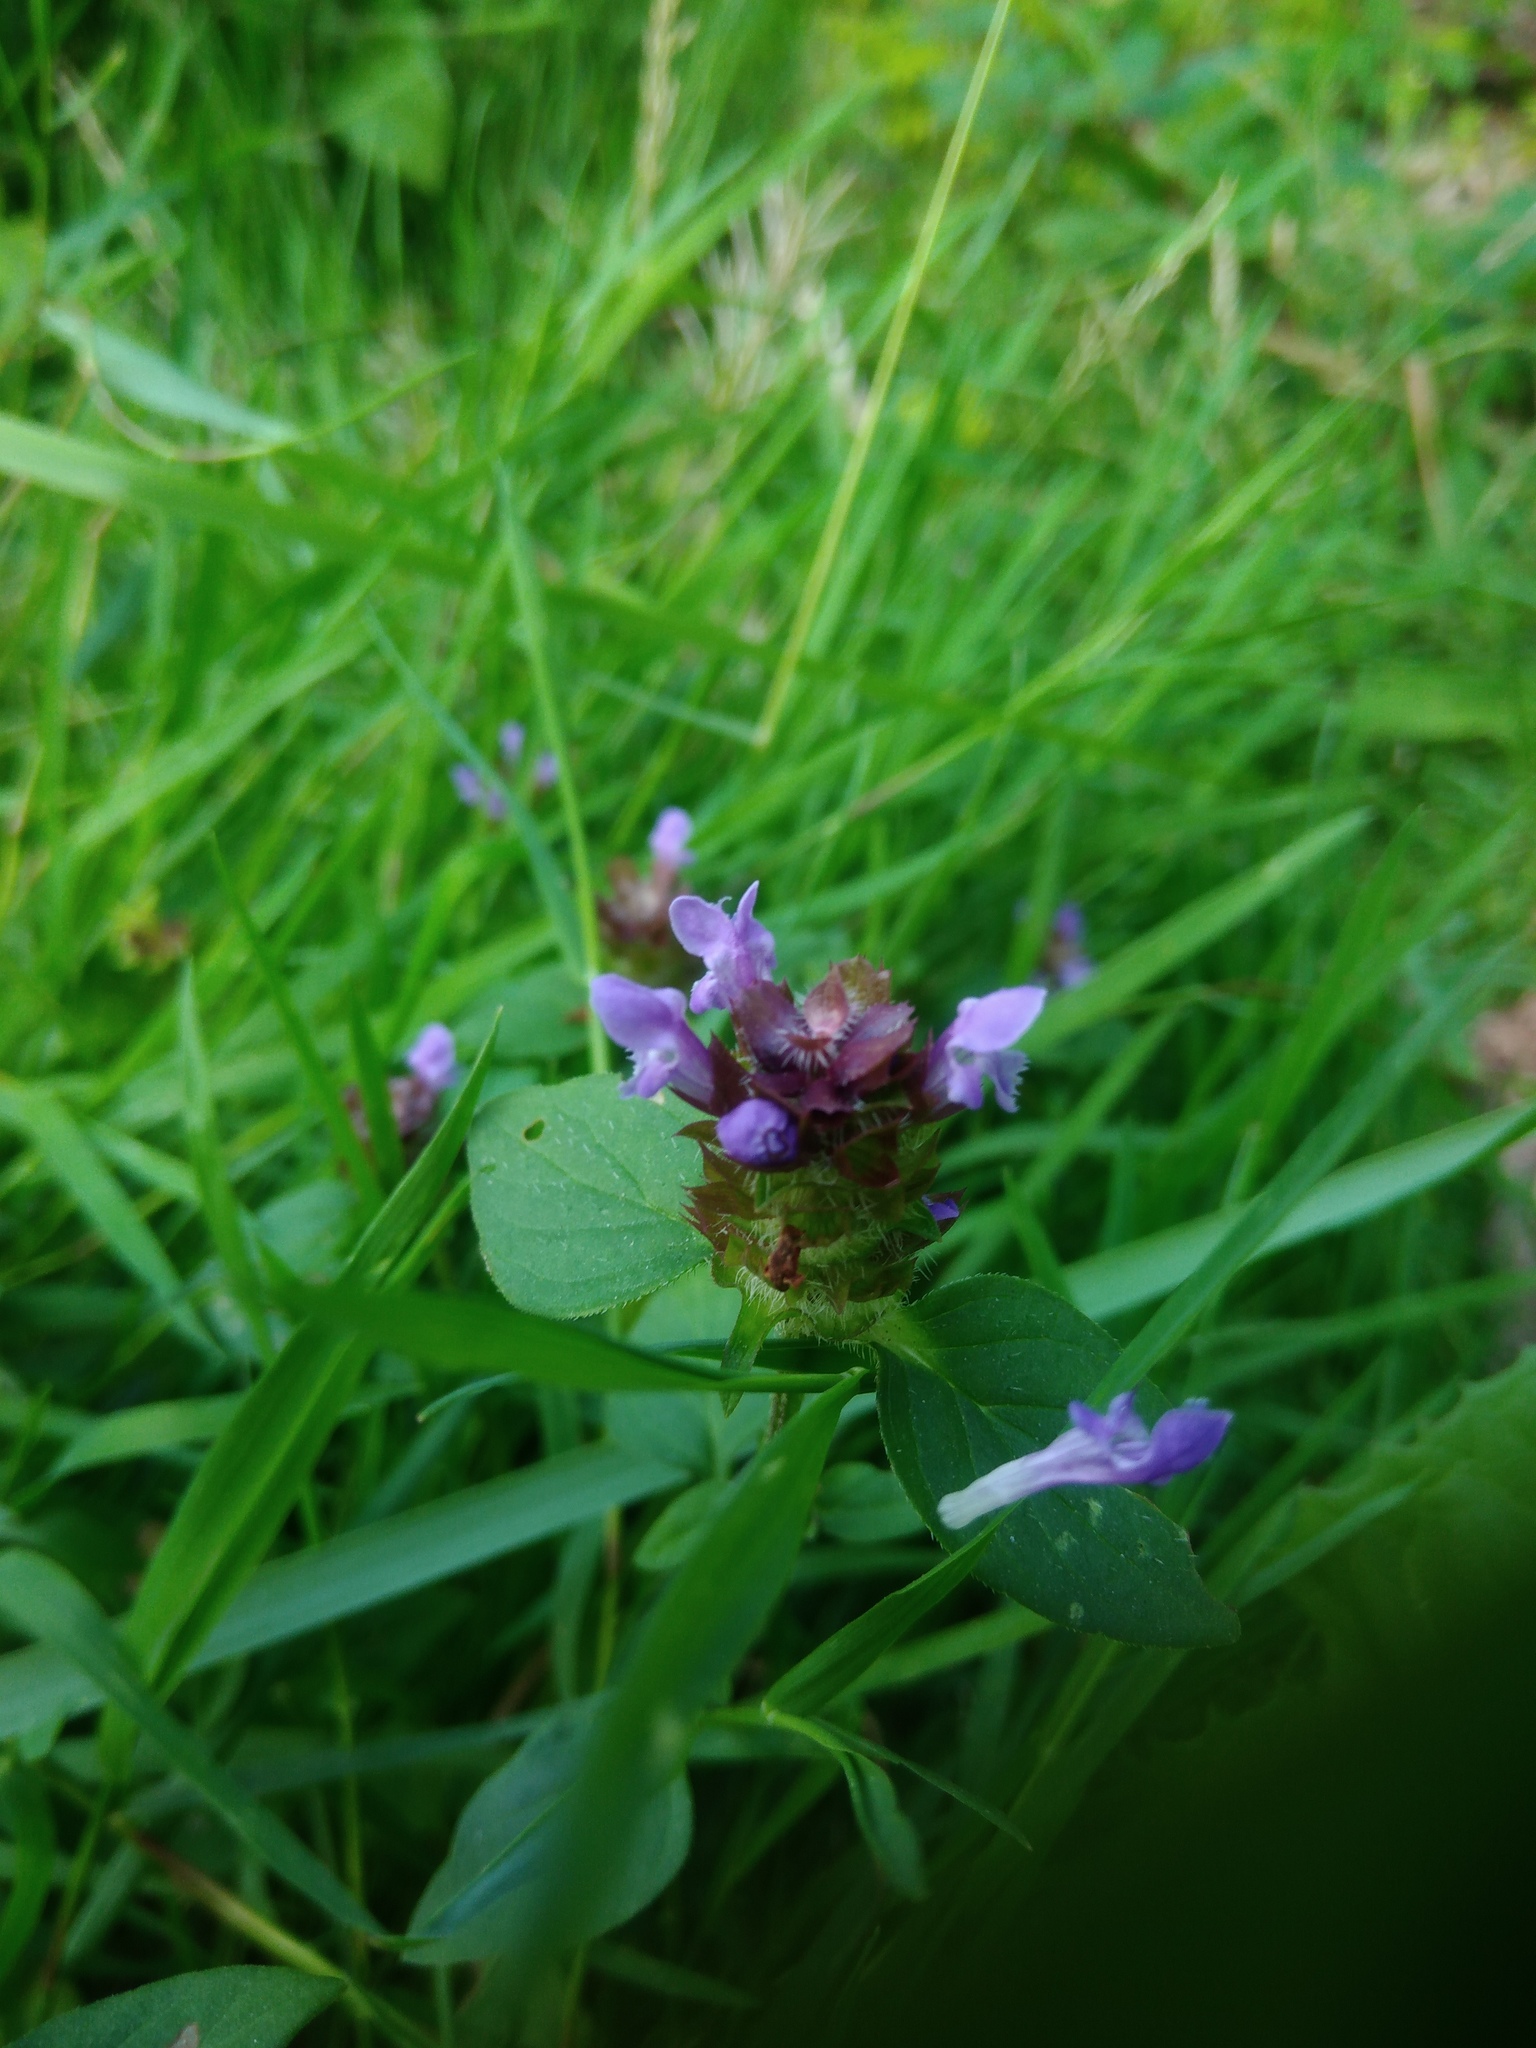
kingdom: Plantae
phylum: Tracheophyta
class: Magnoliopsida
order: Lamiales
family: Lamiaceae
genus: Prunella
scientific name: Prunella vulgaris
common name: Heal-all
